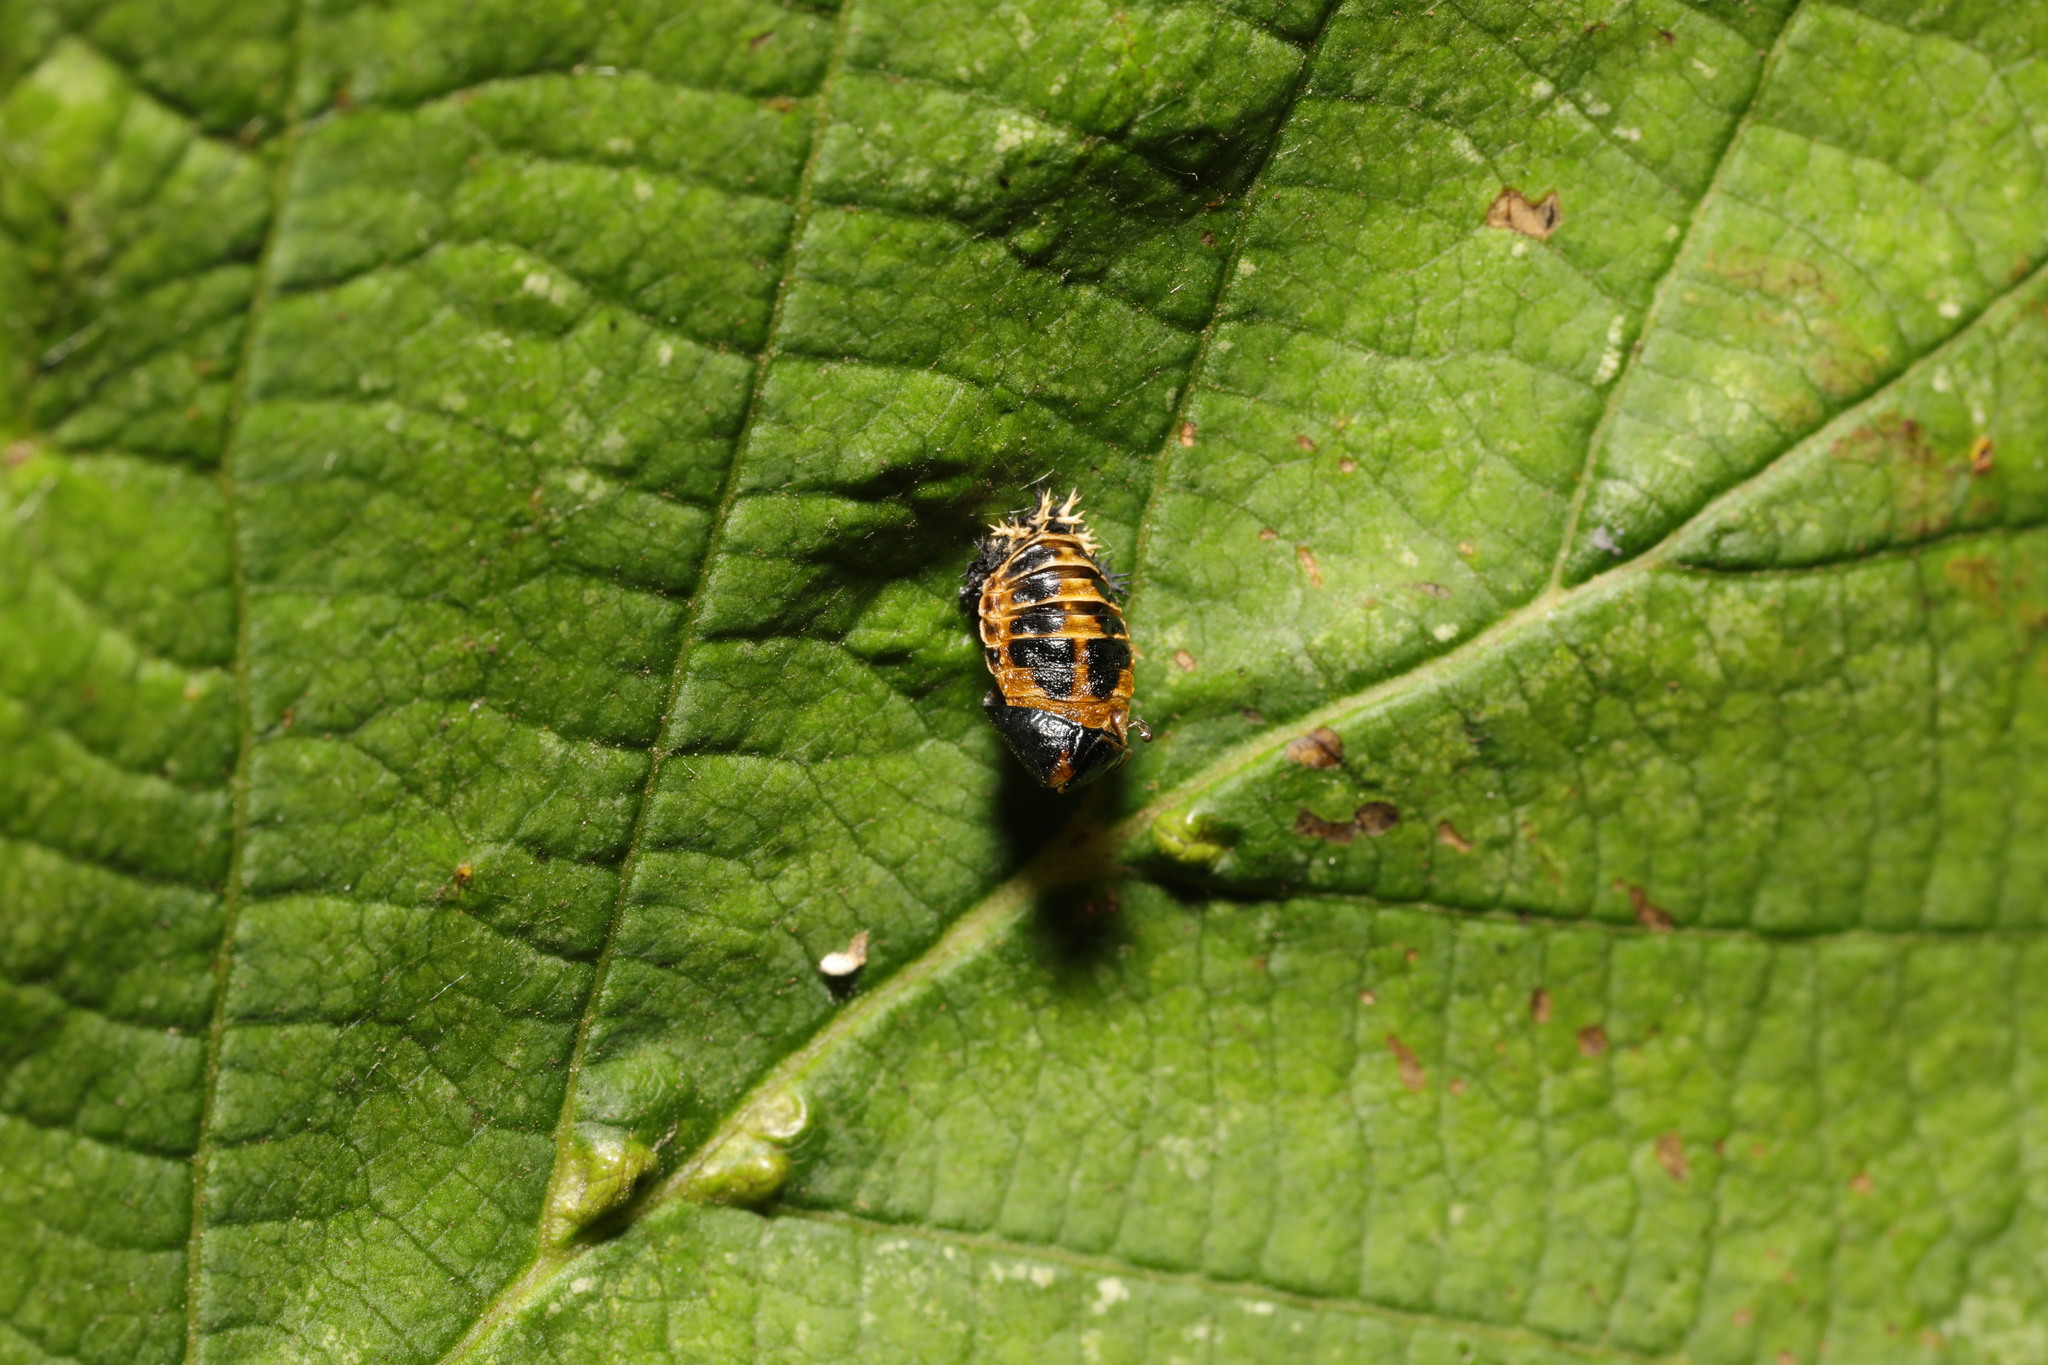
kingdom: Animalia
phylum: Arthropoda
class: Insecta
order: Coleoptera
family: Coccinellidae
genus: Harmonia
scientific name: Harmonia axyridis
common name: Harlequin ladybird
